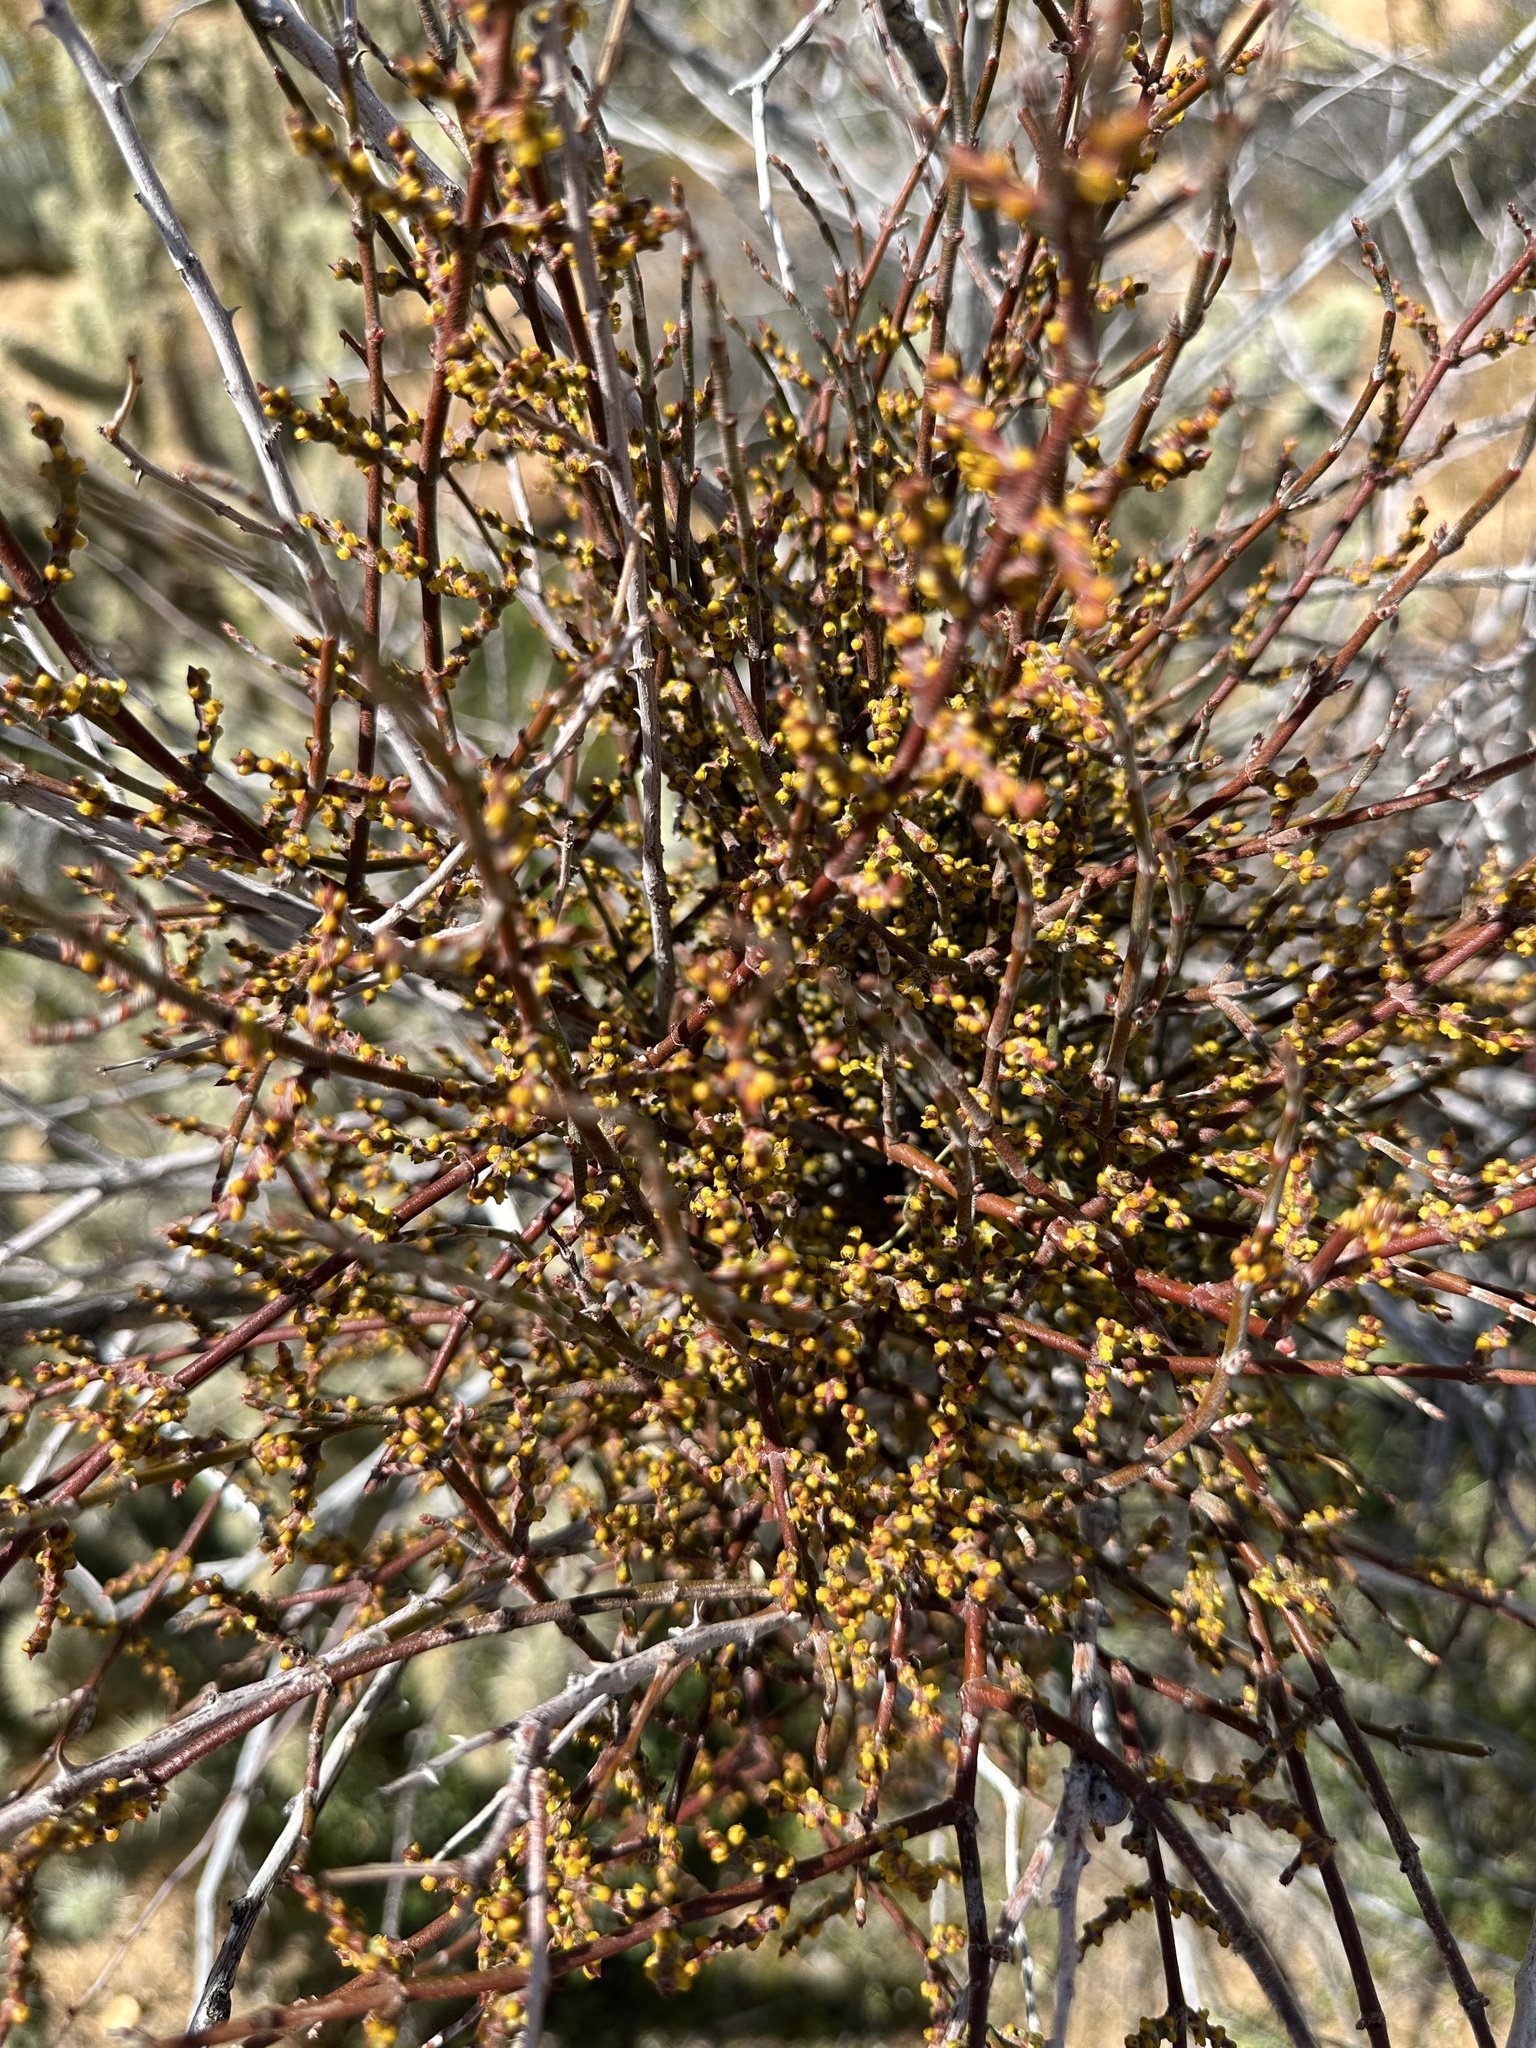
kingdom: Plantae
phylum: Tracheophyta
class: Magnoliopsida
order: Santalales
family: Viscaceae
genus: Phoradendron
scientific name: Phoradendron californicum
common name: Acacia mistletoe
